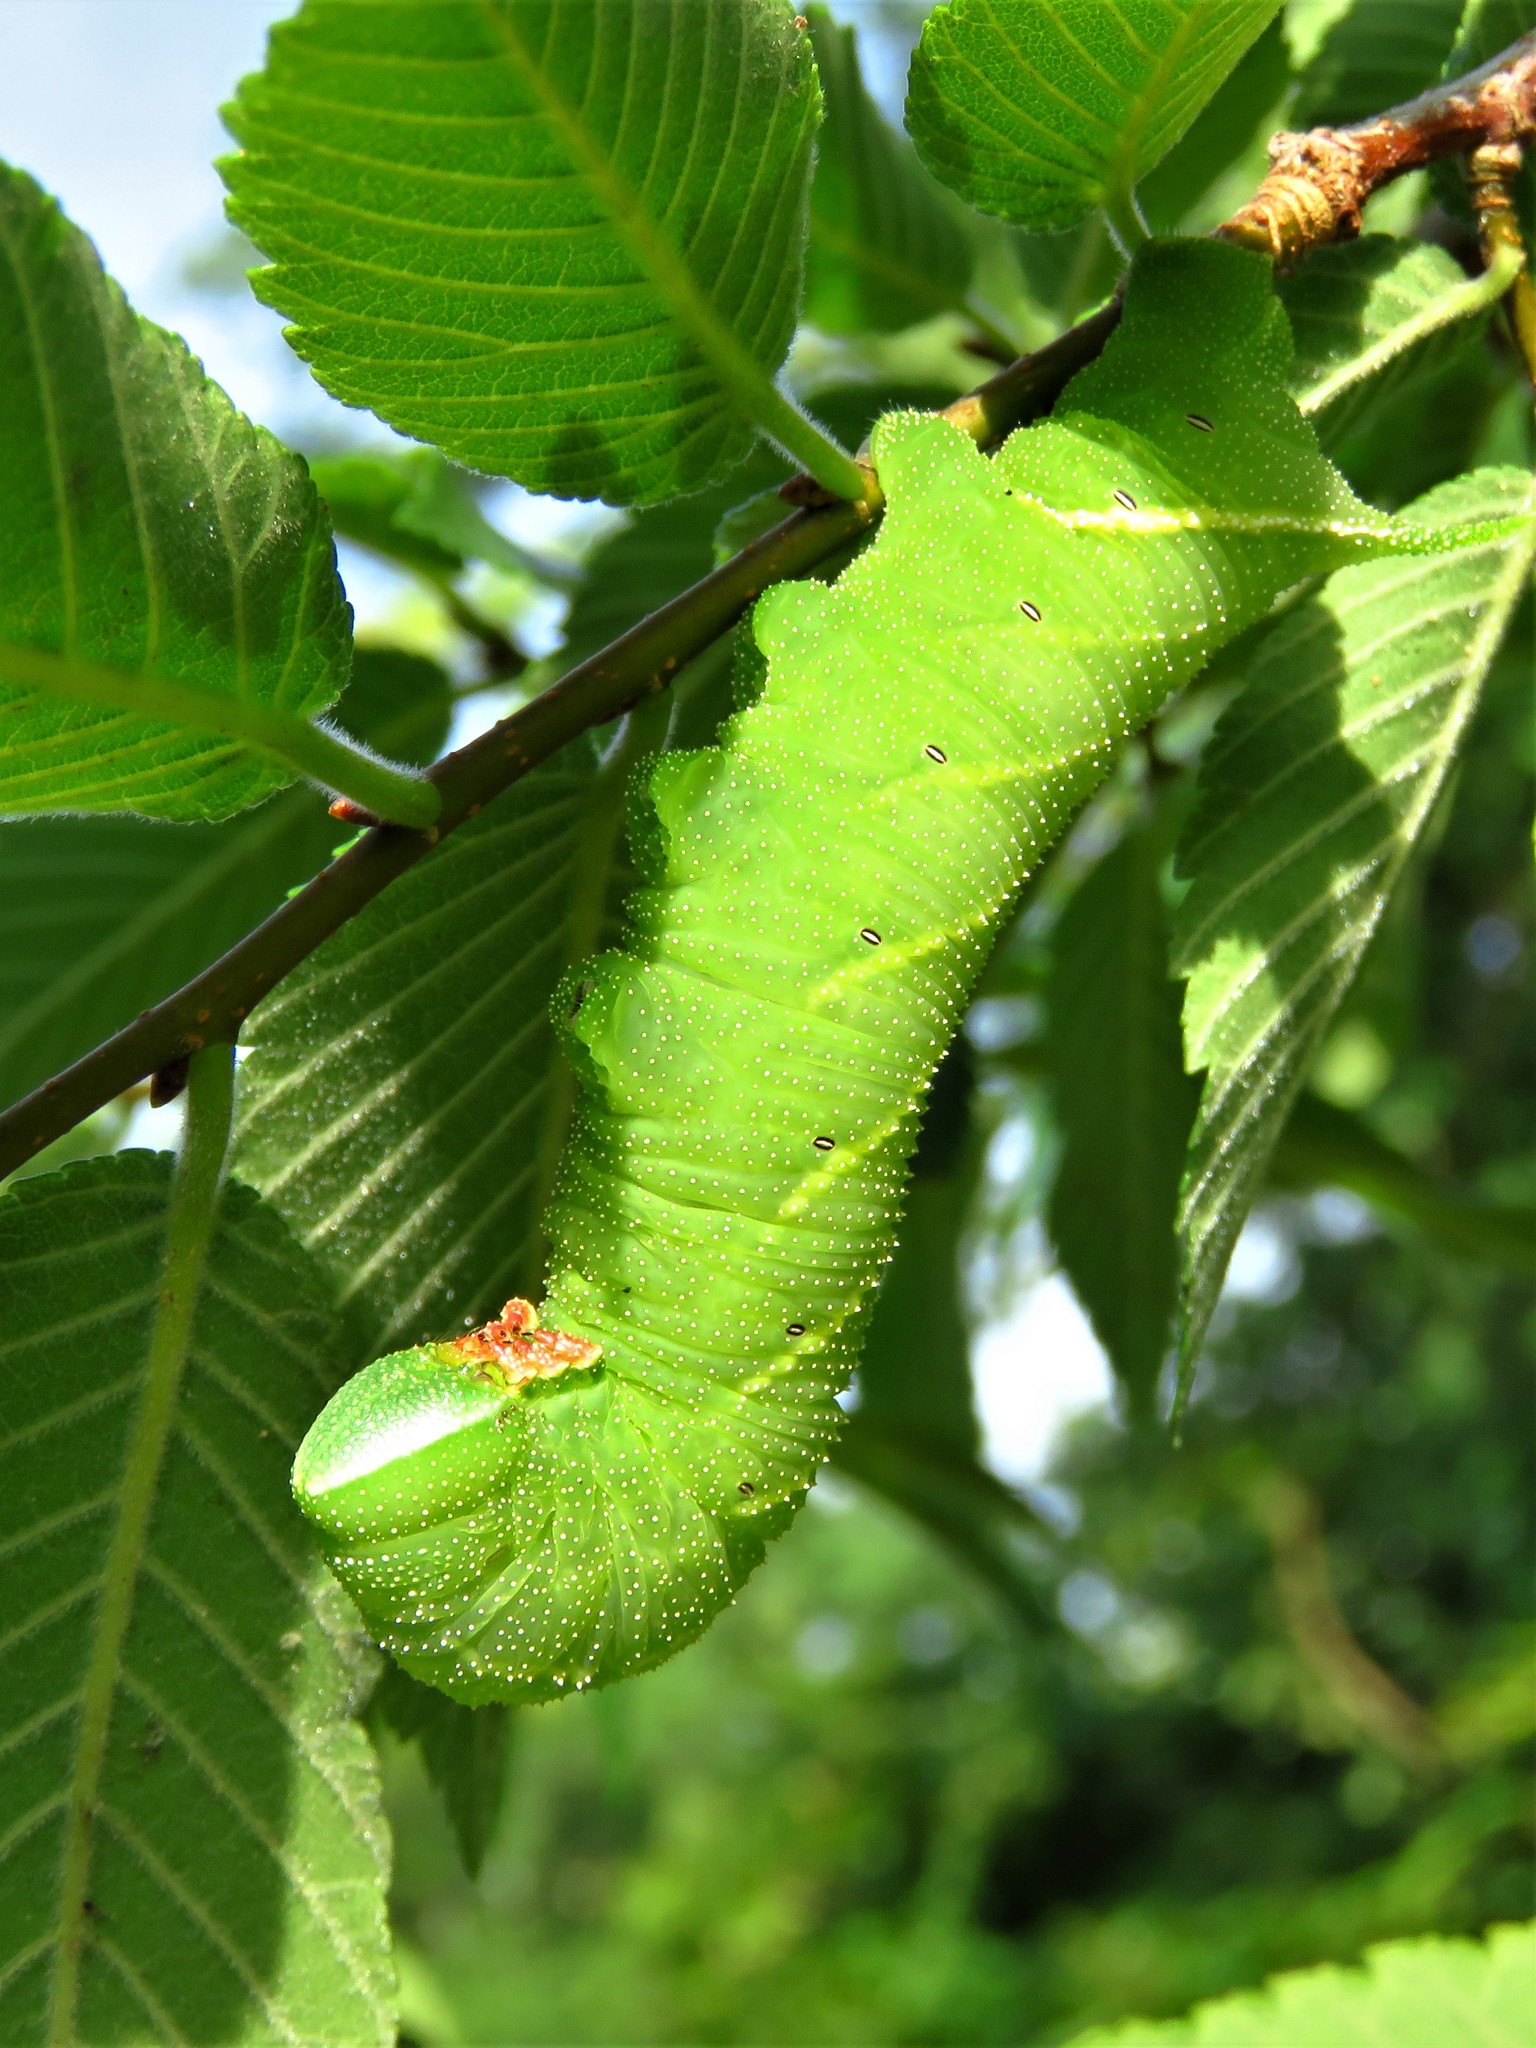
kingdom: Animalia
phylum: Arthropoda
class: Insecta
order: Lepidoptera
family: Sphingidae
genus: Paonias
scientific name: Paonias excaecata
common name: Blind-eyed sphinx
